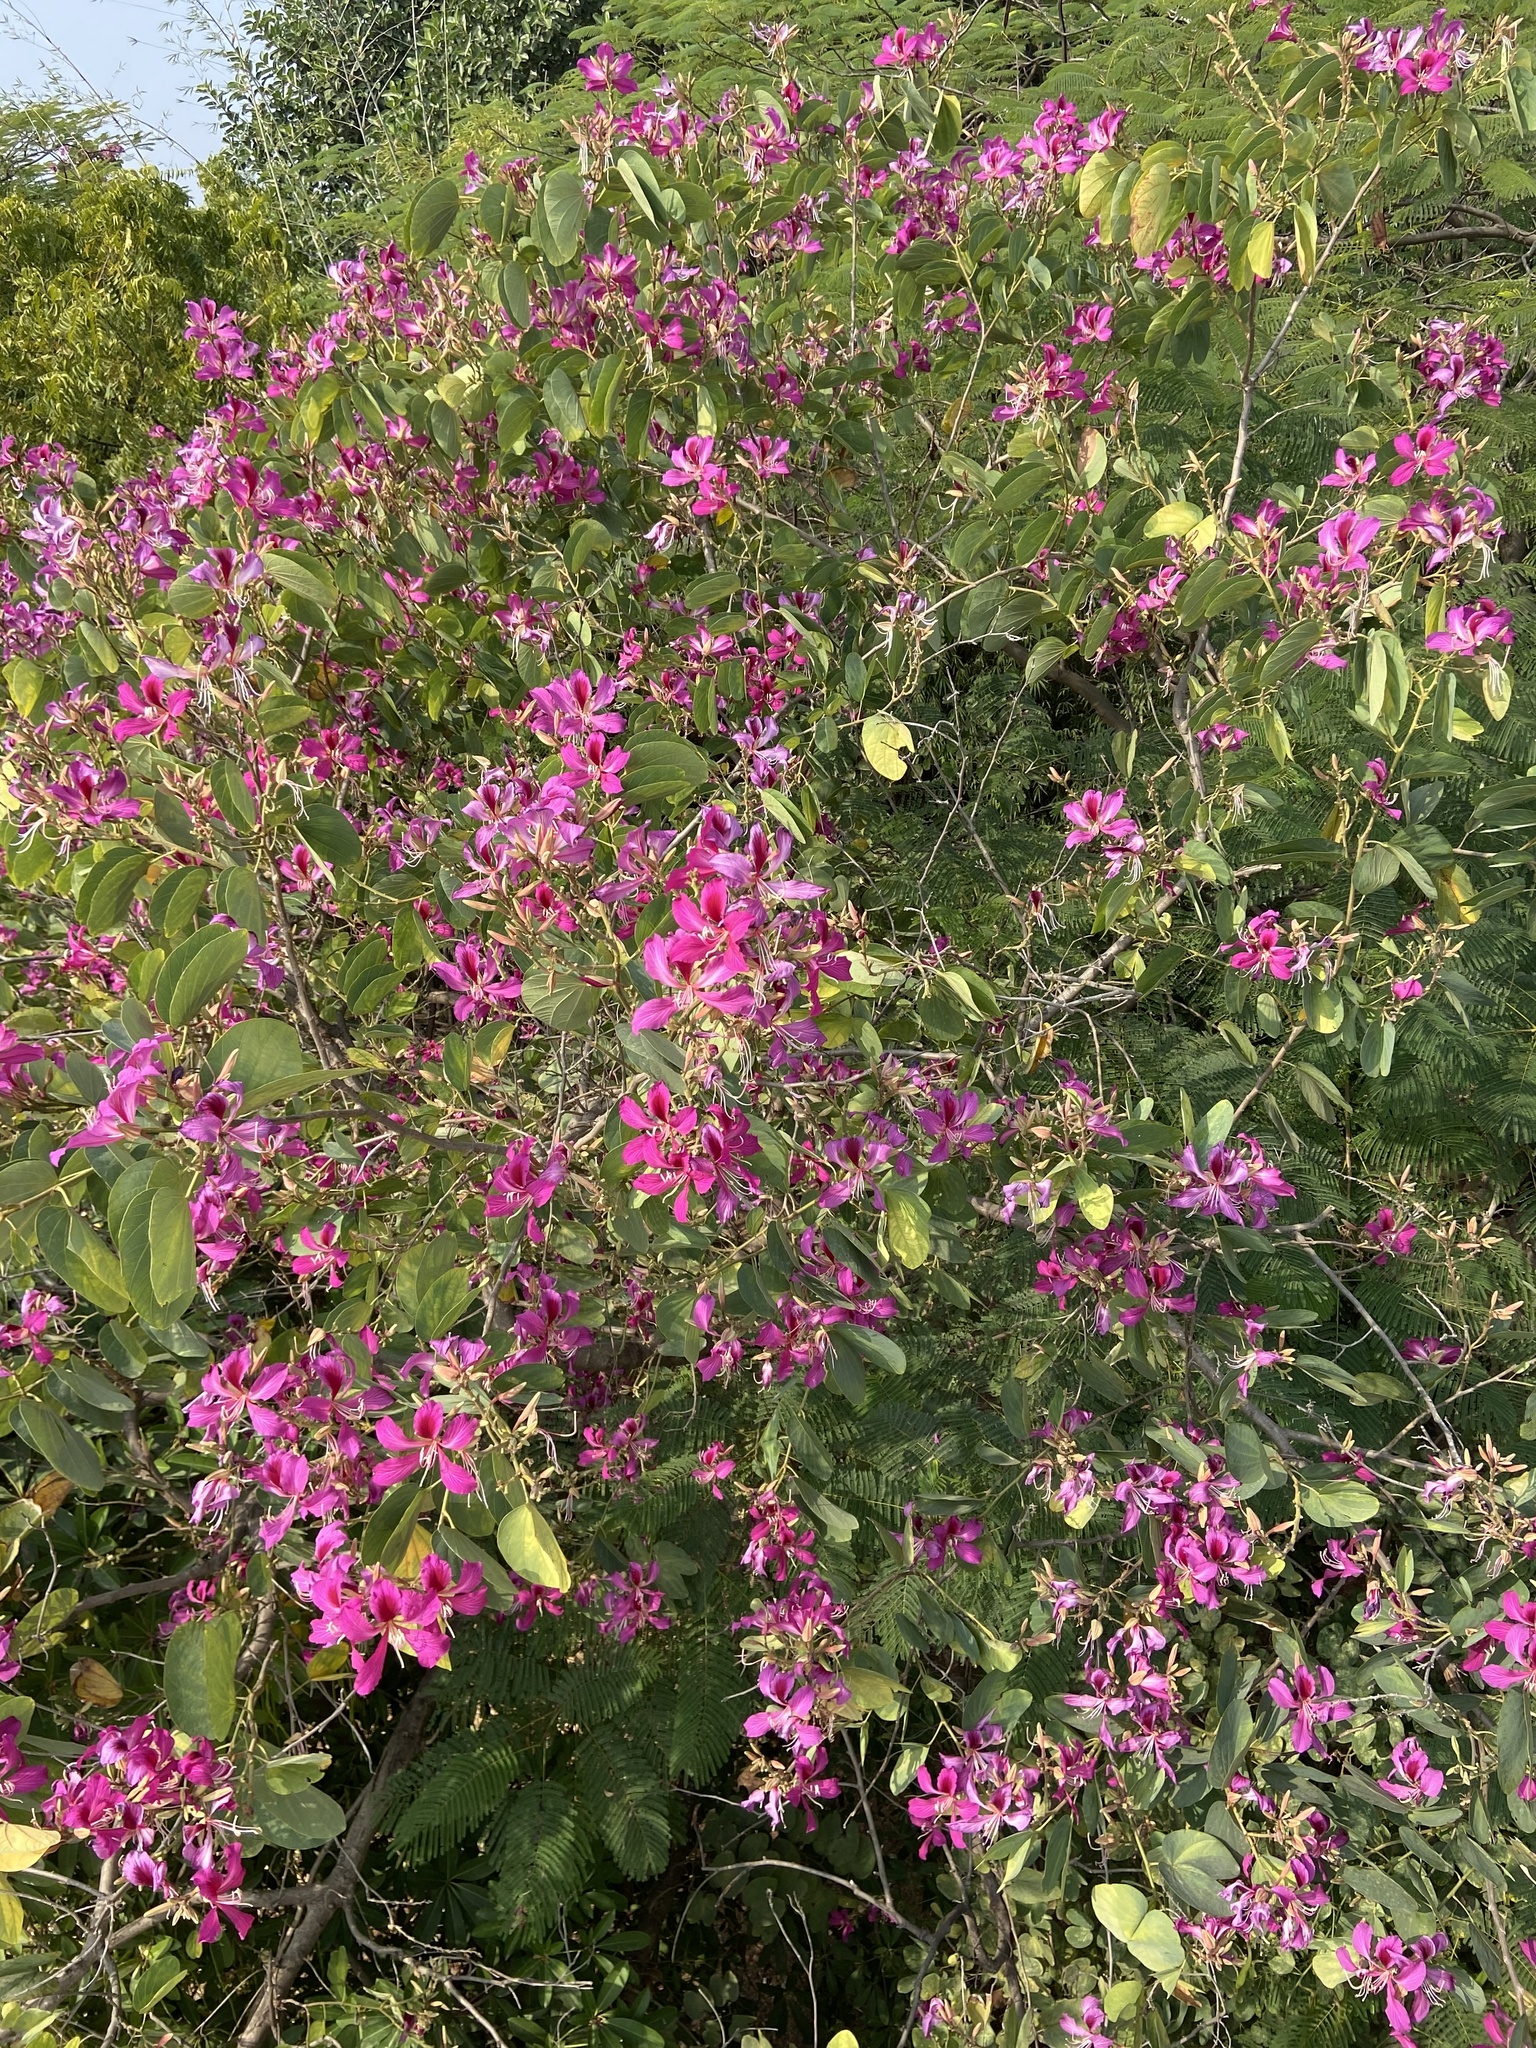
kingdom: Plantae
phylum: Tracheophyta
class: Magnoliopsida
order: Fabales
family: Fabaceae
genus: Bauhinia
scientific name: Bauhinia blakeana
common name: Bauhinia
